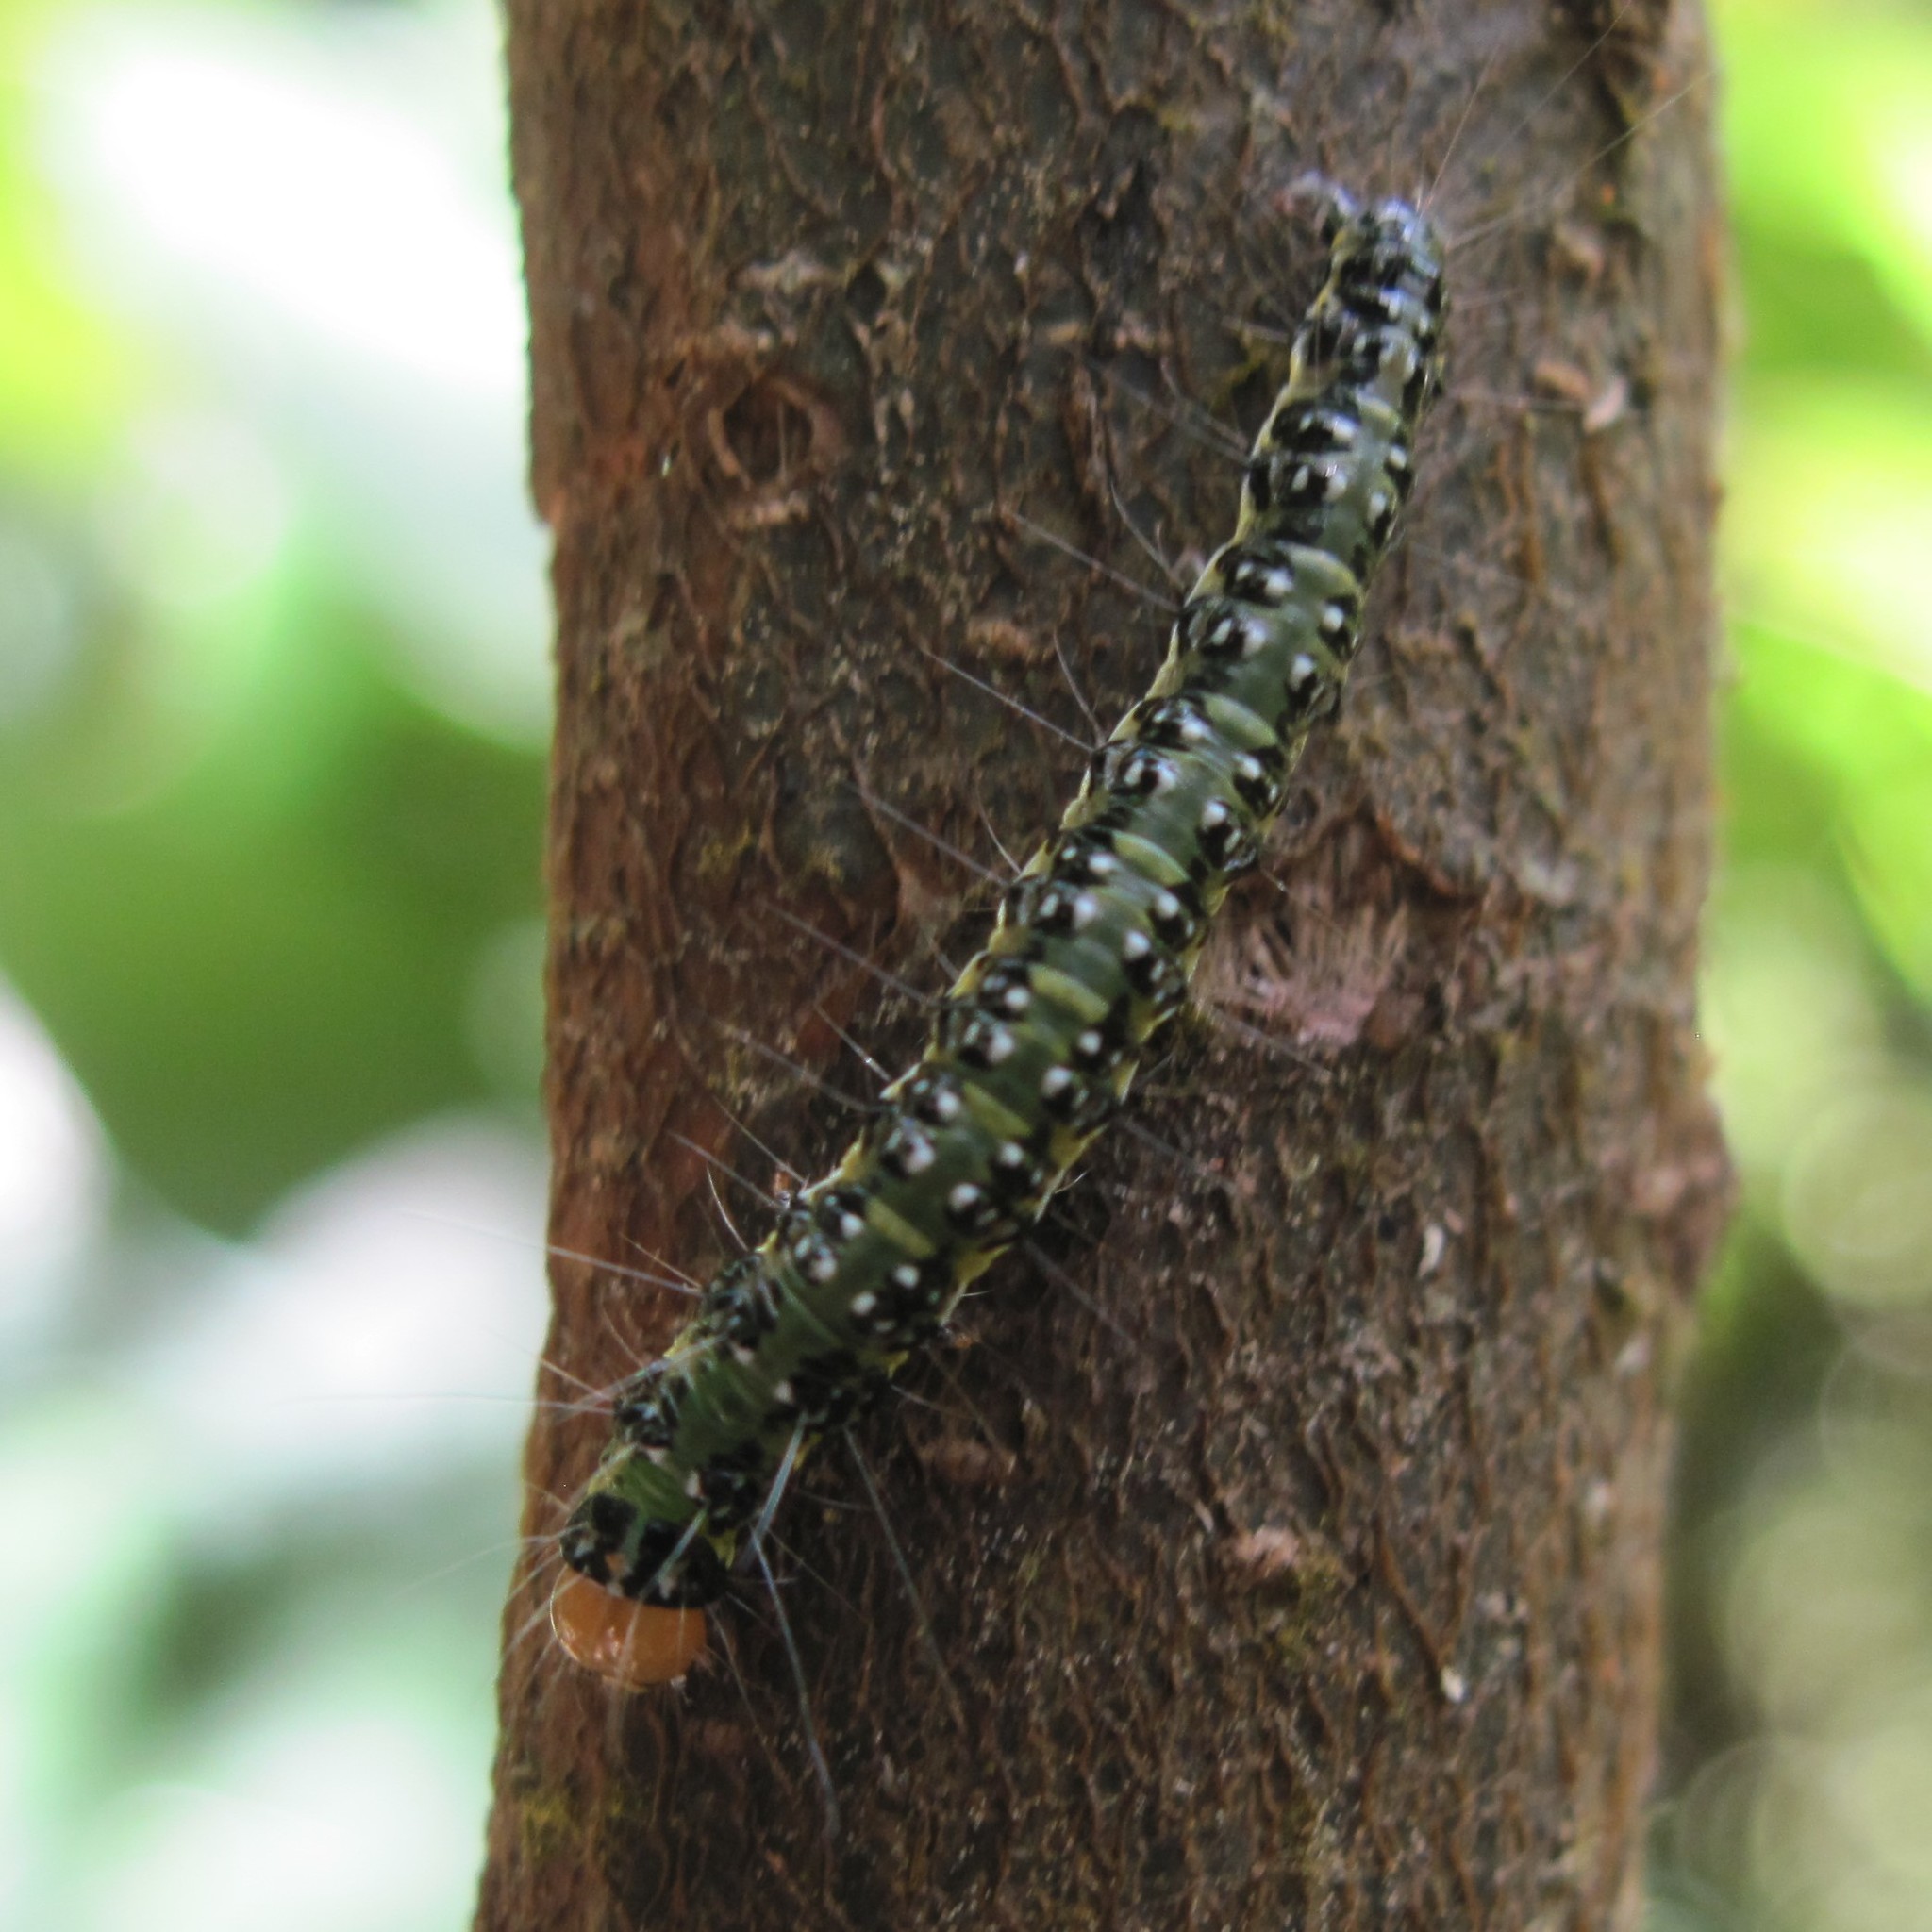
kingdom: Animalia
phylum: Arthropoda
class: Insecta
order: Lepidoptera
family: Crambidae
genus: Uresiphita
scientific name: Uresiphita
